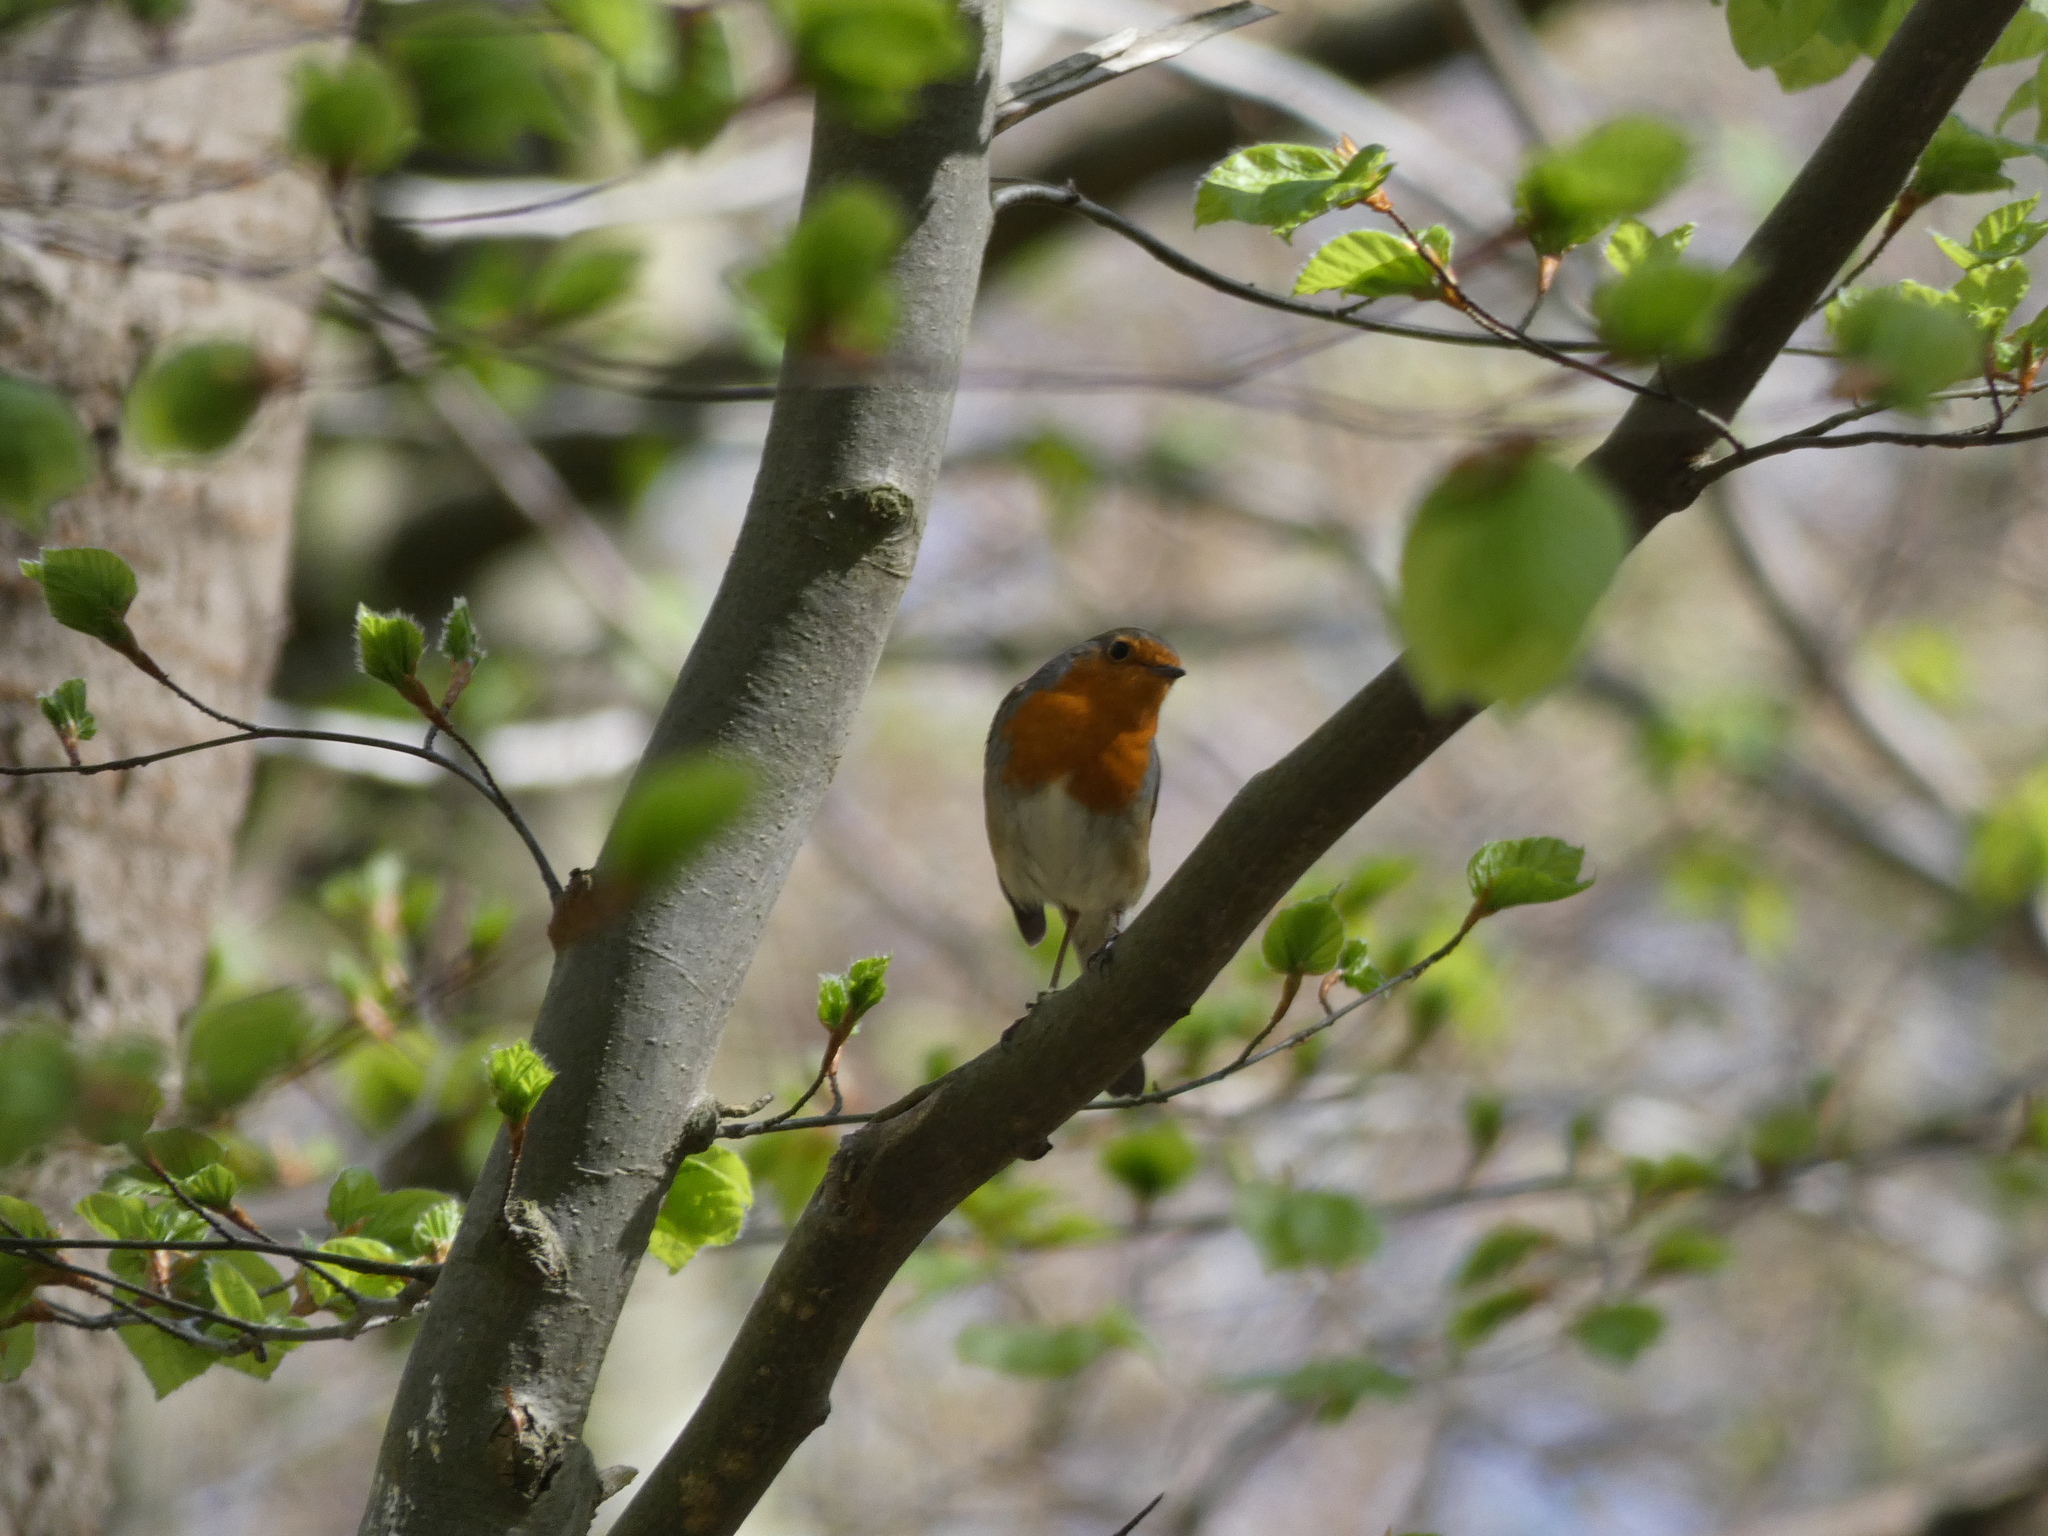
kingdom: Animalia
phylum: Chordata
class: Aves
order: Passeriformes
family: Muscicapidae
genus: Erithacus
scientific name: Erithacus rubecula
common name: European robin
